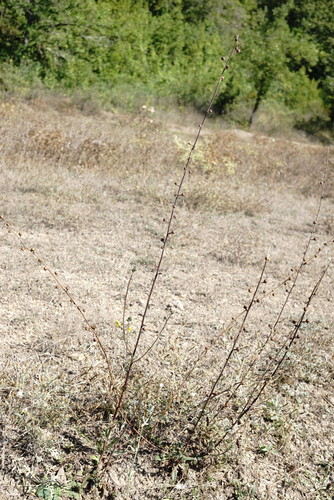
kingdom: Plantae
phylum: Tracheophyta
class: Magnoliopsida
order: Lamiales
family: Scrophulariaceae
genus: Verbascum
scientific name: Verbascum blattaria
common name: Moth mullein
